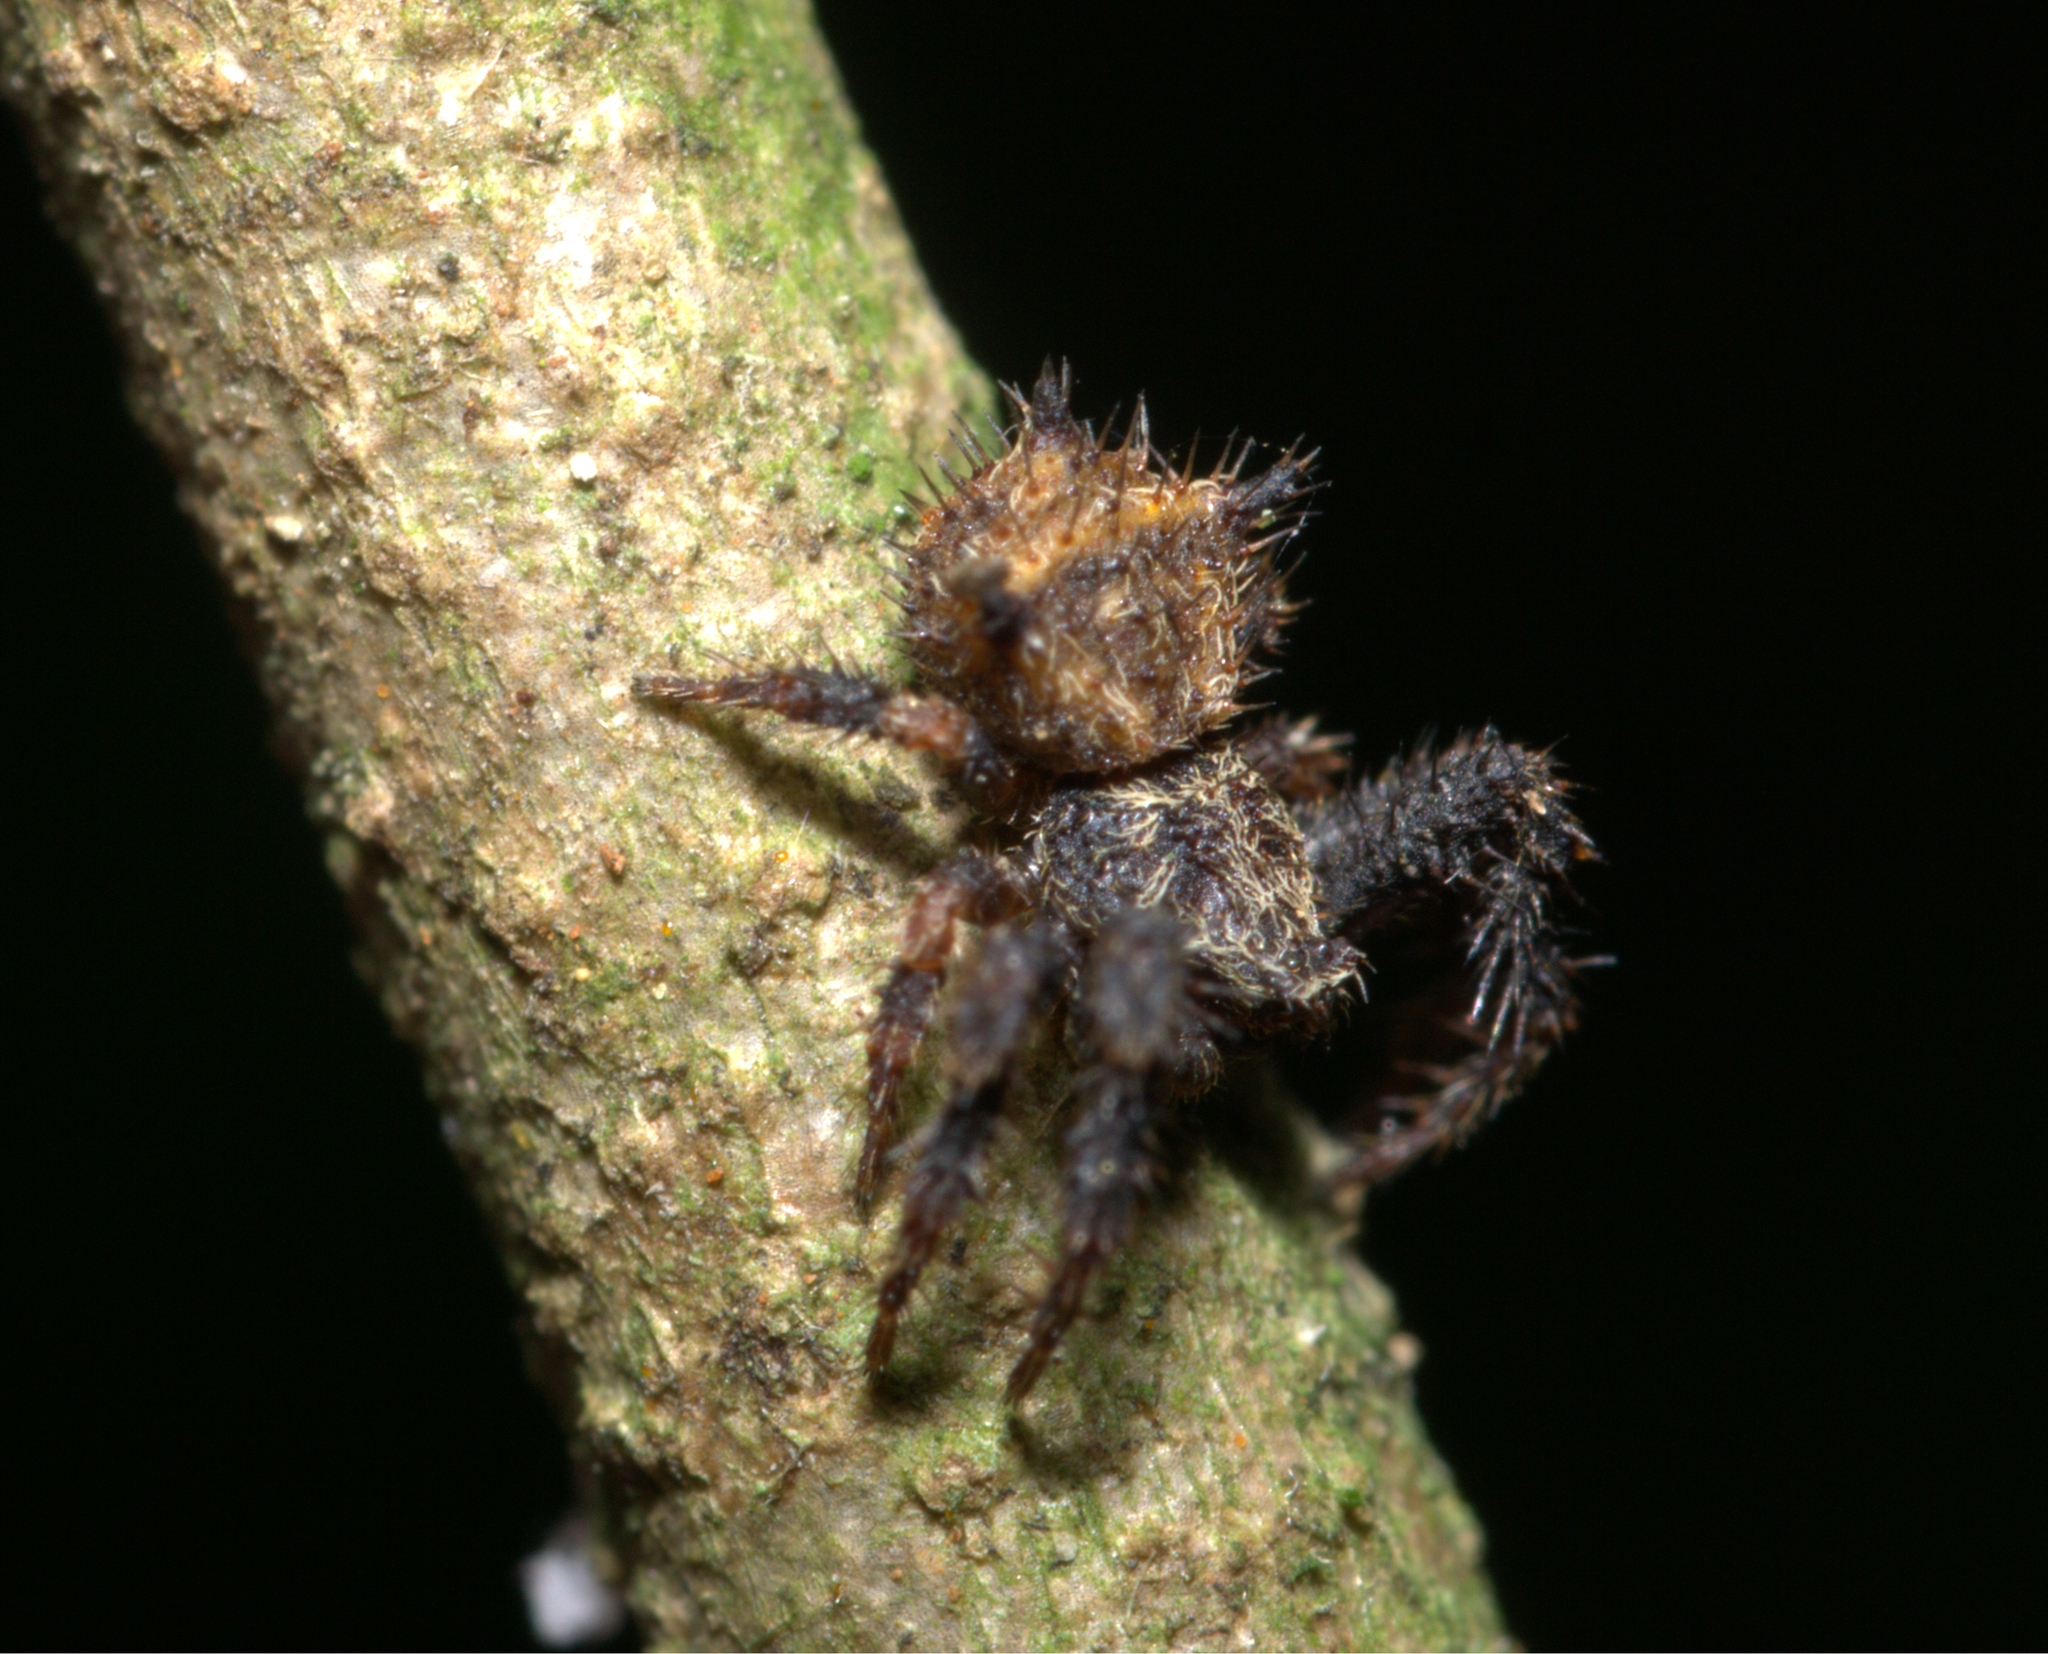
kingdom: Animalia
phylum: Arthropoda
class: Arachnida
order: Araneae
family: Thomisidae
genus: Epicadinus
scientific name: Epicadinus villosus
